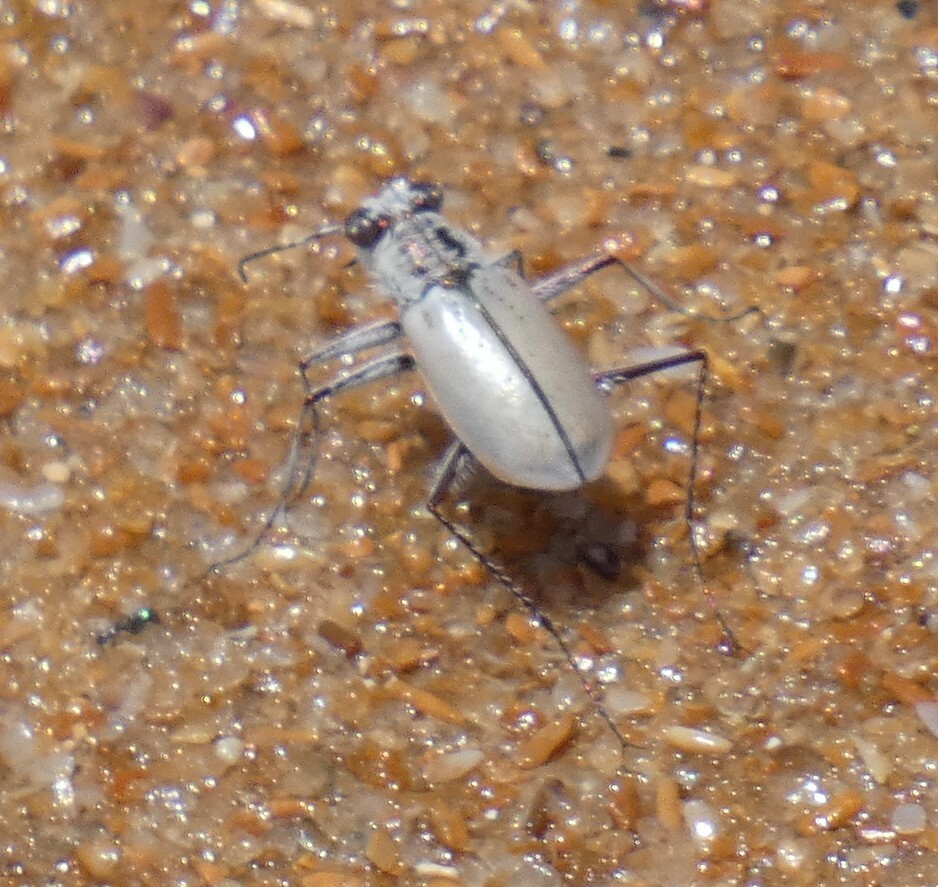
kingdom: Animalia
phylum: Arthropoda
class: Insecta
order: Coleoptera
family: Carabidae
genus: Cylindera
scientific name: Cylindera nivea
